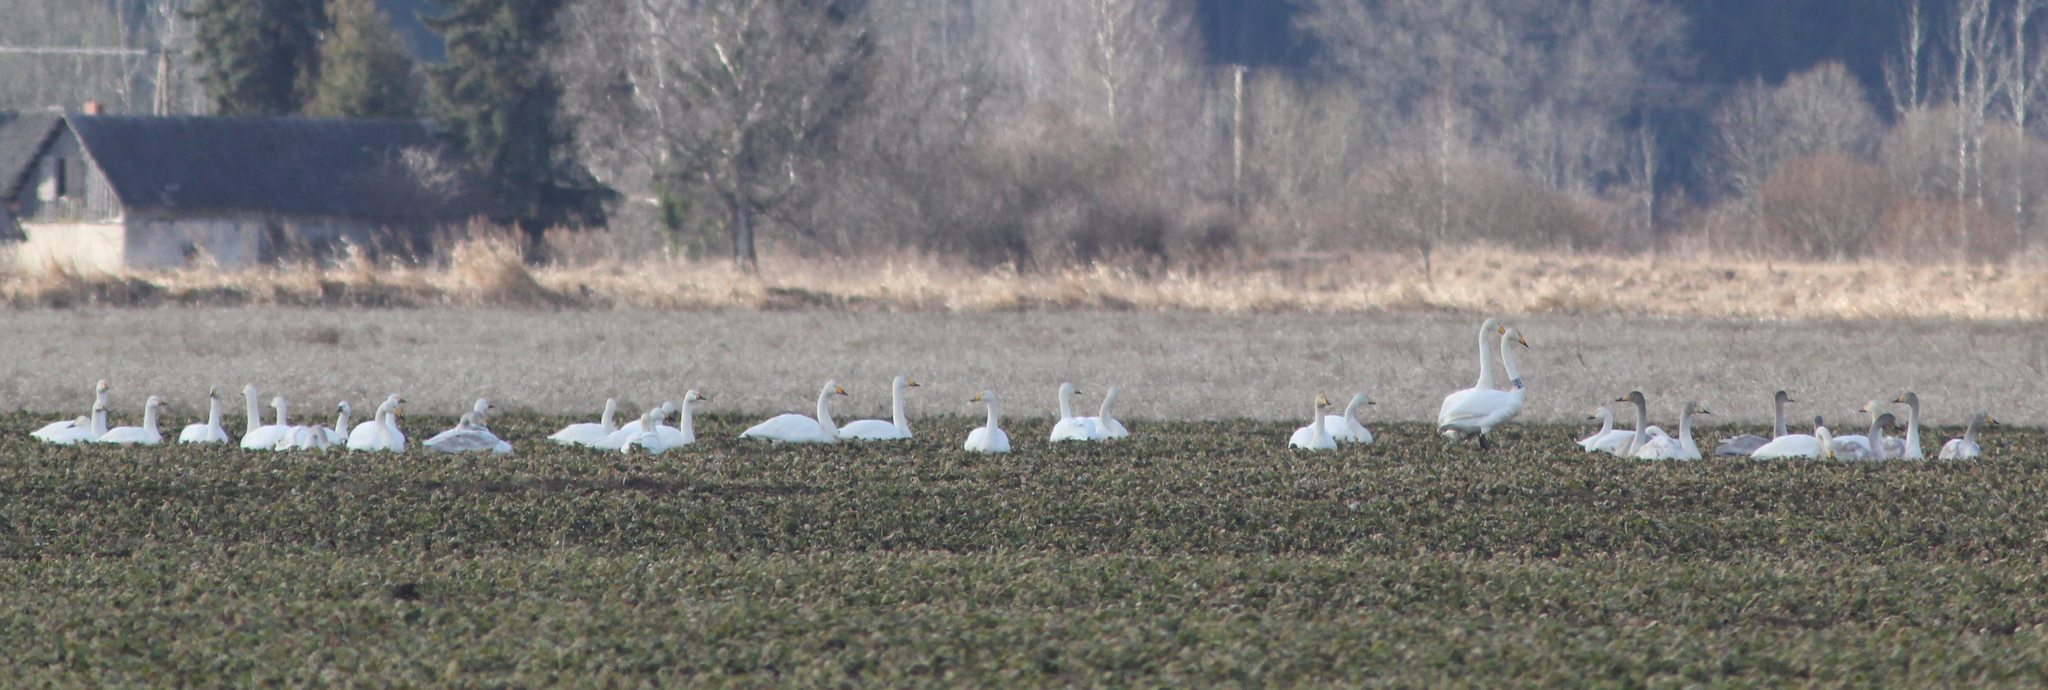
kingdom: Animalia
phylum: Chordata
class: Aves
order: Anseriformes
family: Anatidae
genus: Cygnus
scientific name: Cygnus cygnus
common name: Whooper swan
